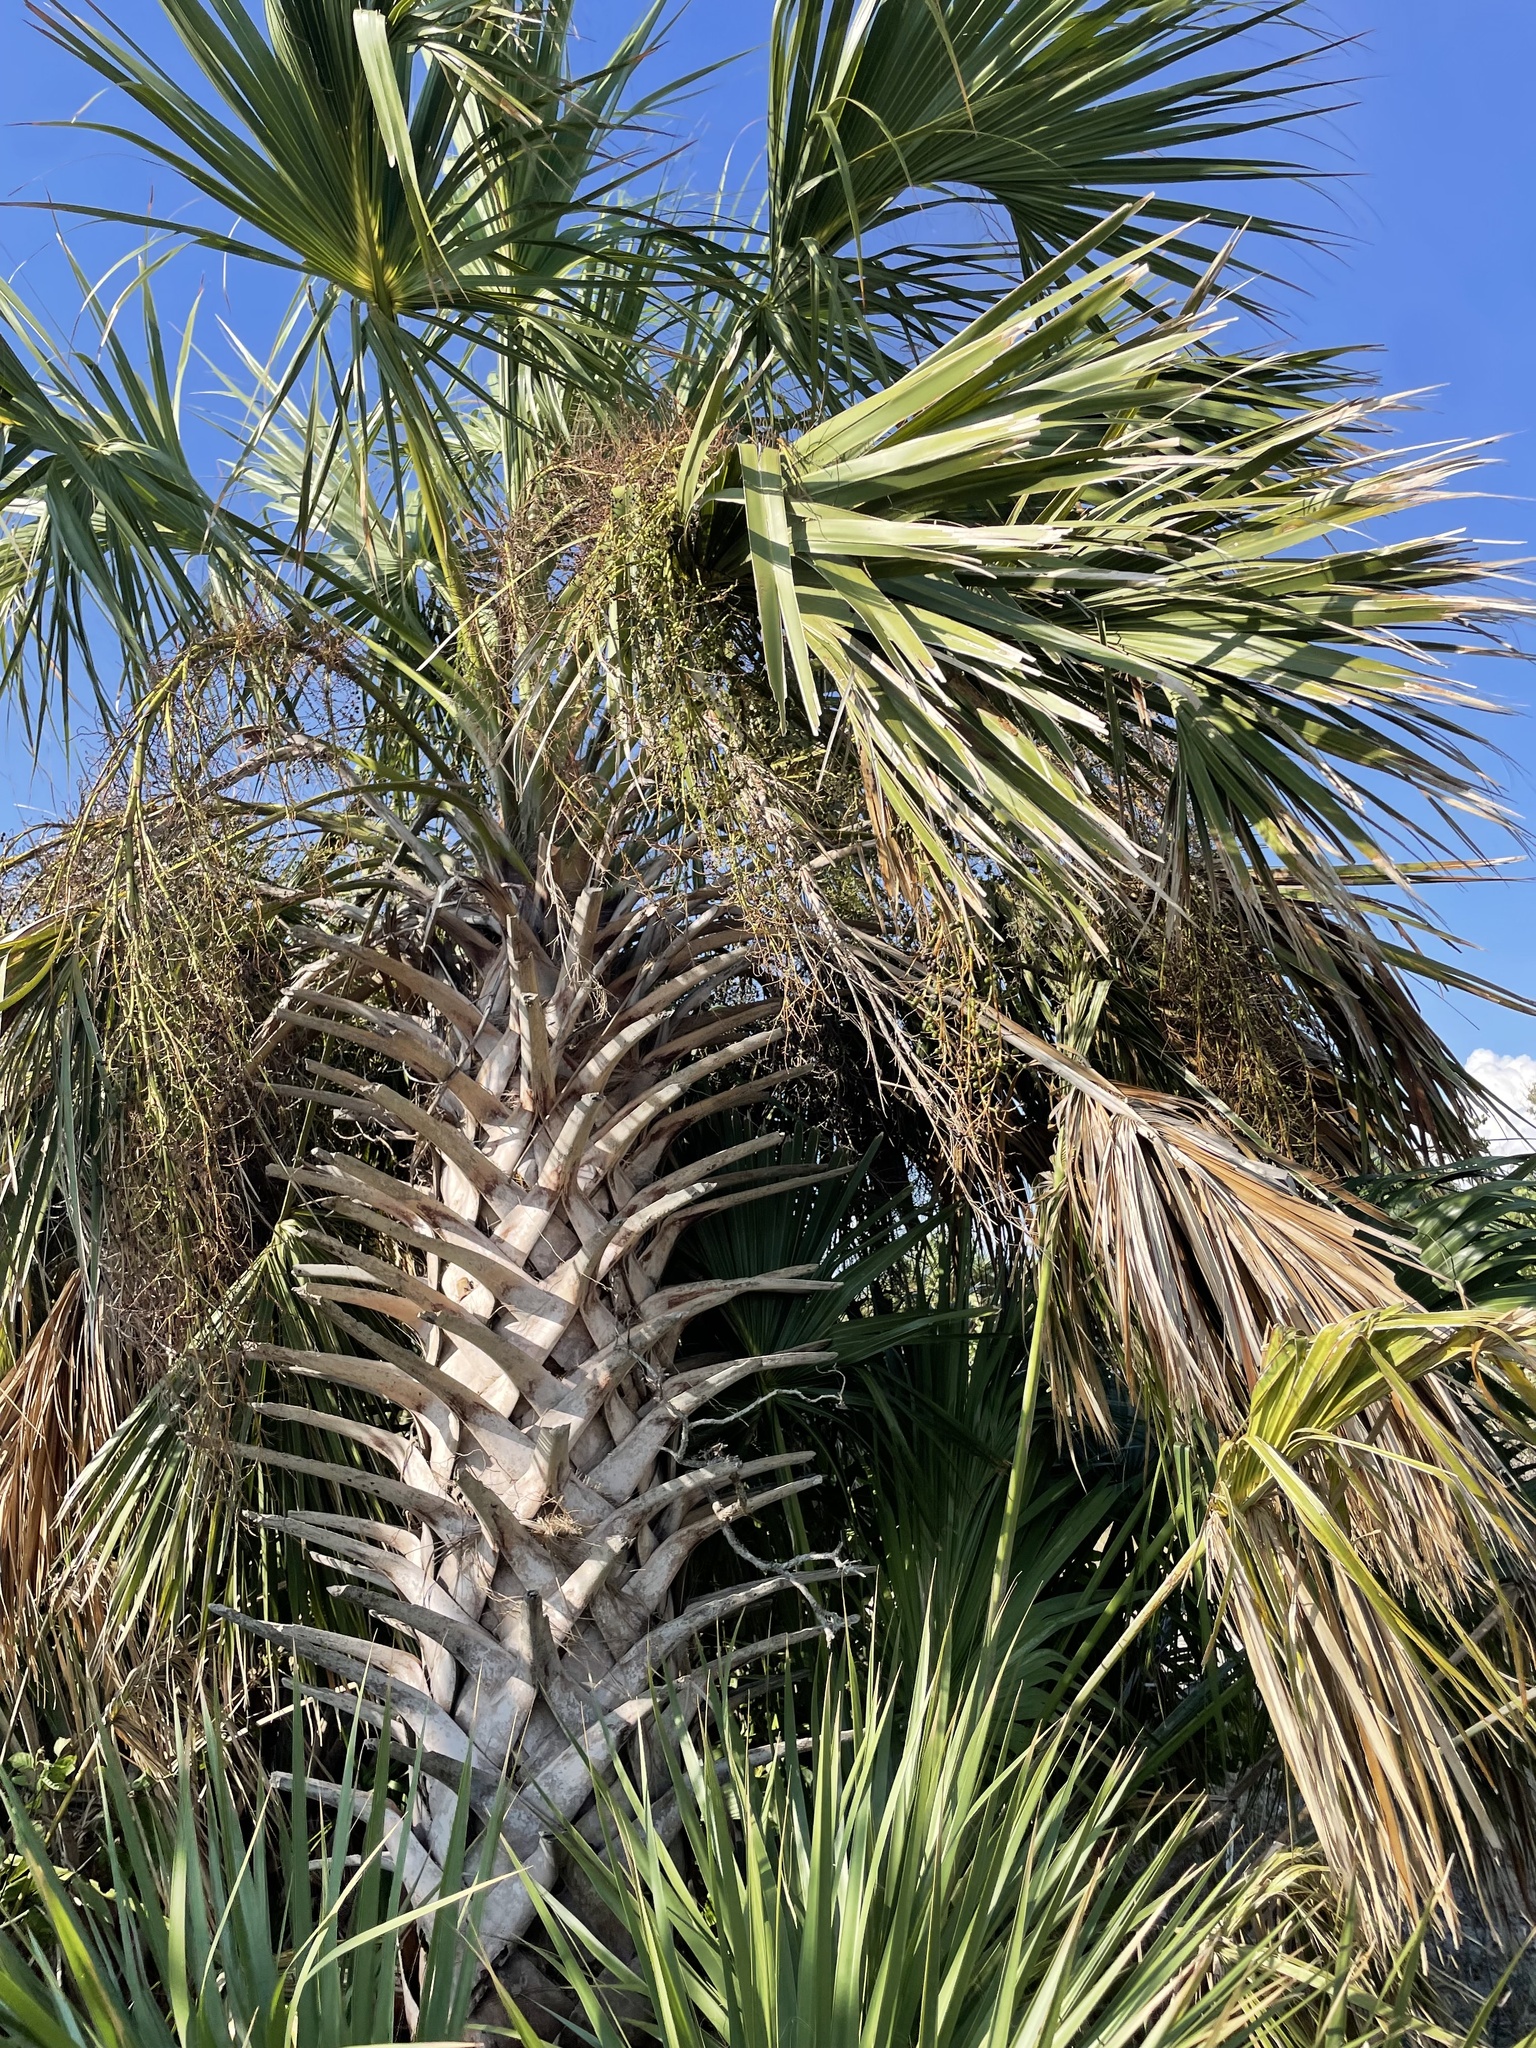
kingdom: Plantae
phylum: Tracheophyta
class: Liliopsida
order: Arecales
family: Arecaceae
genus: Sabal
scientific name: Sabal palmetto
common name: Blue palmetto
